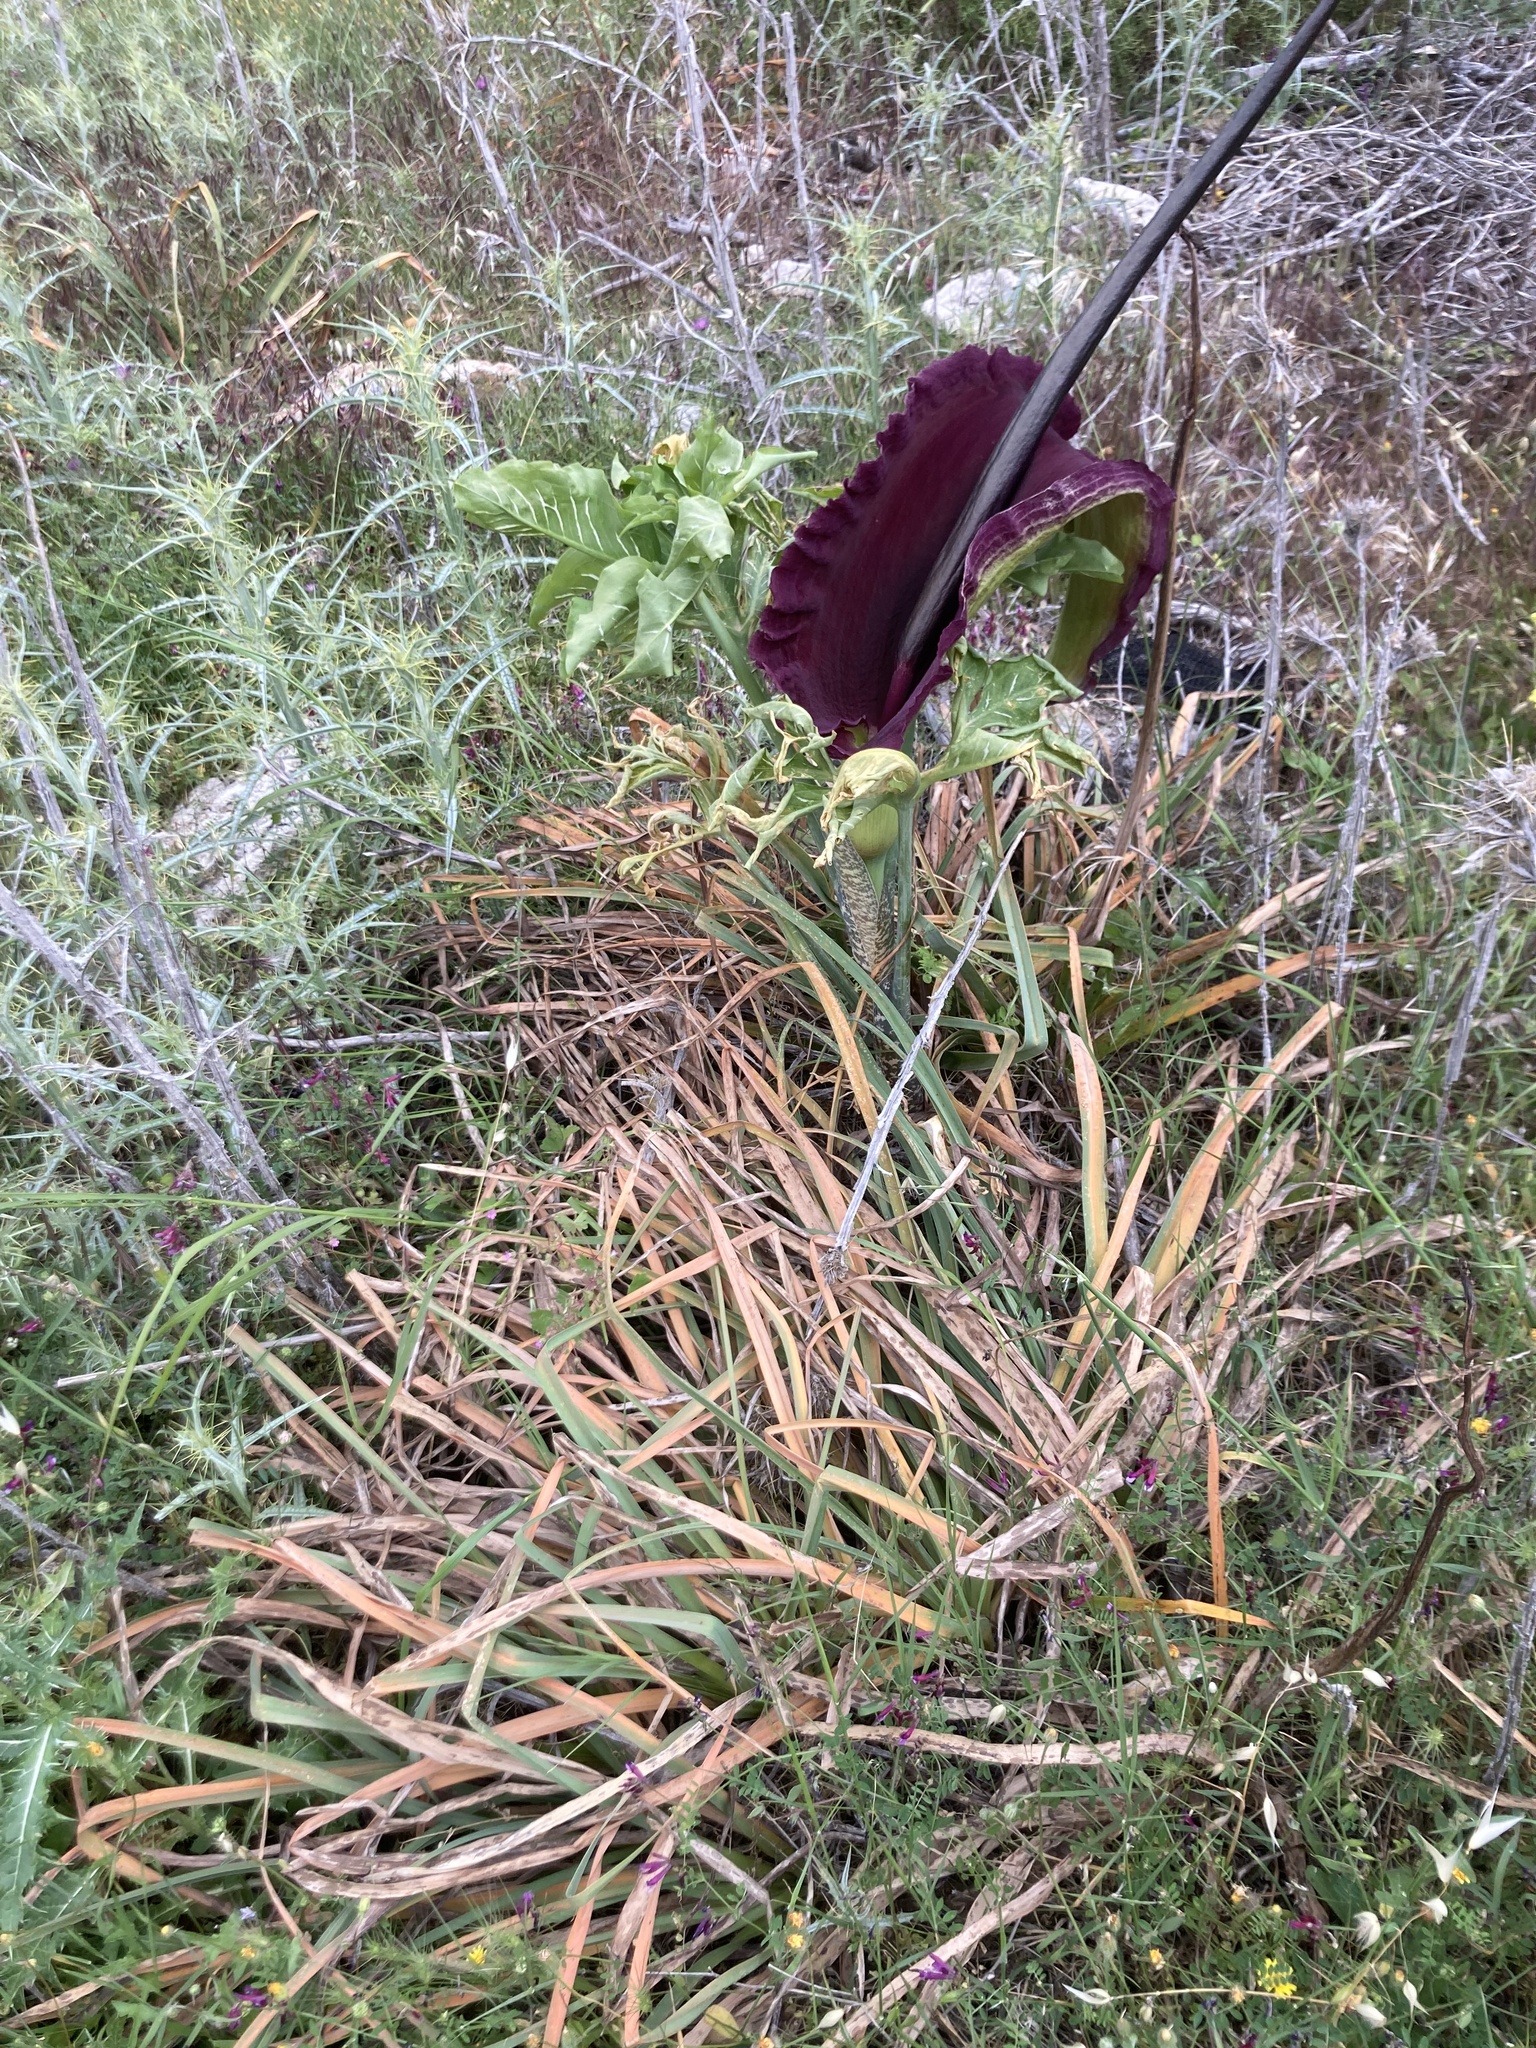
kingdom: Plantae
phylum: Tracheophyta
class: Liliopsida
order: Alismatales
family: Araceae
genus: Dracunculus
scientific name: Dracunculus vulgaris
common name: Dragon arum
